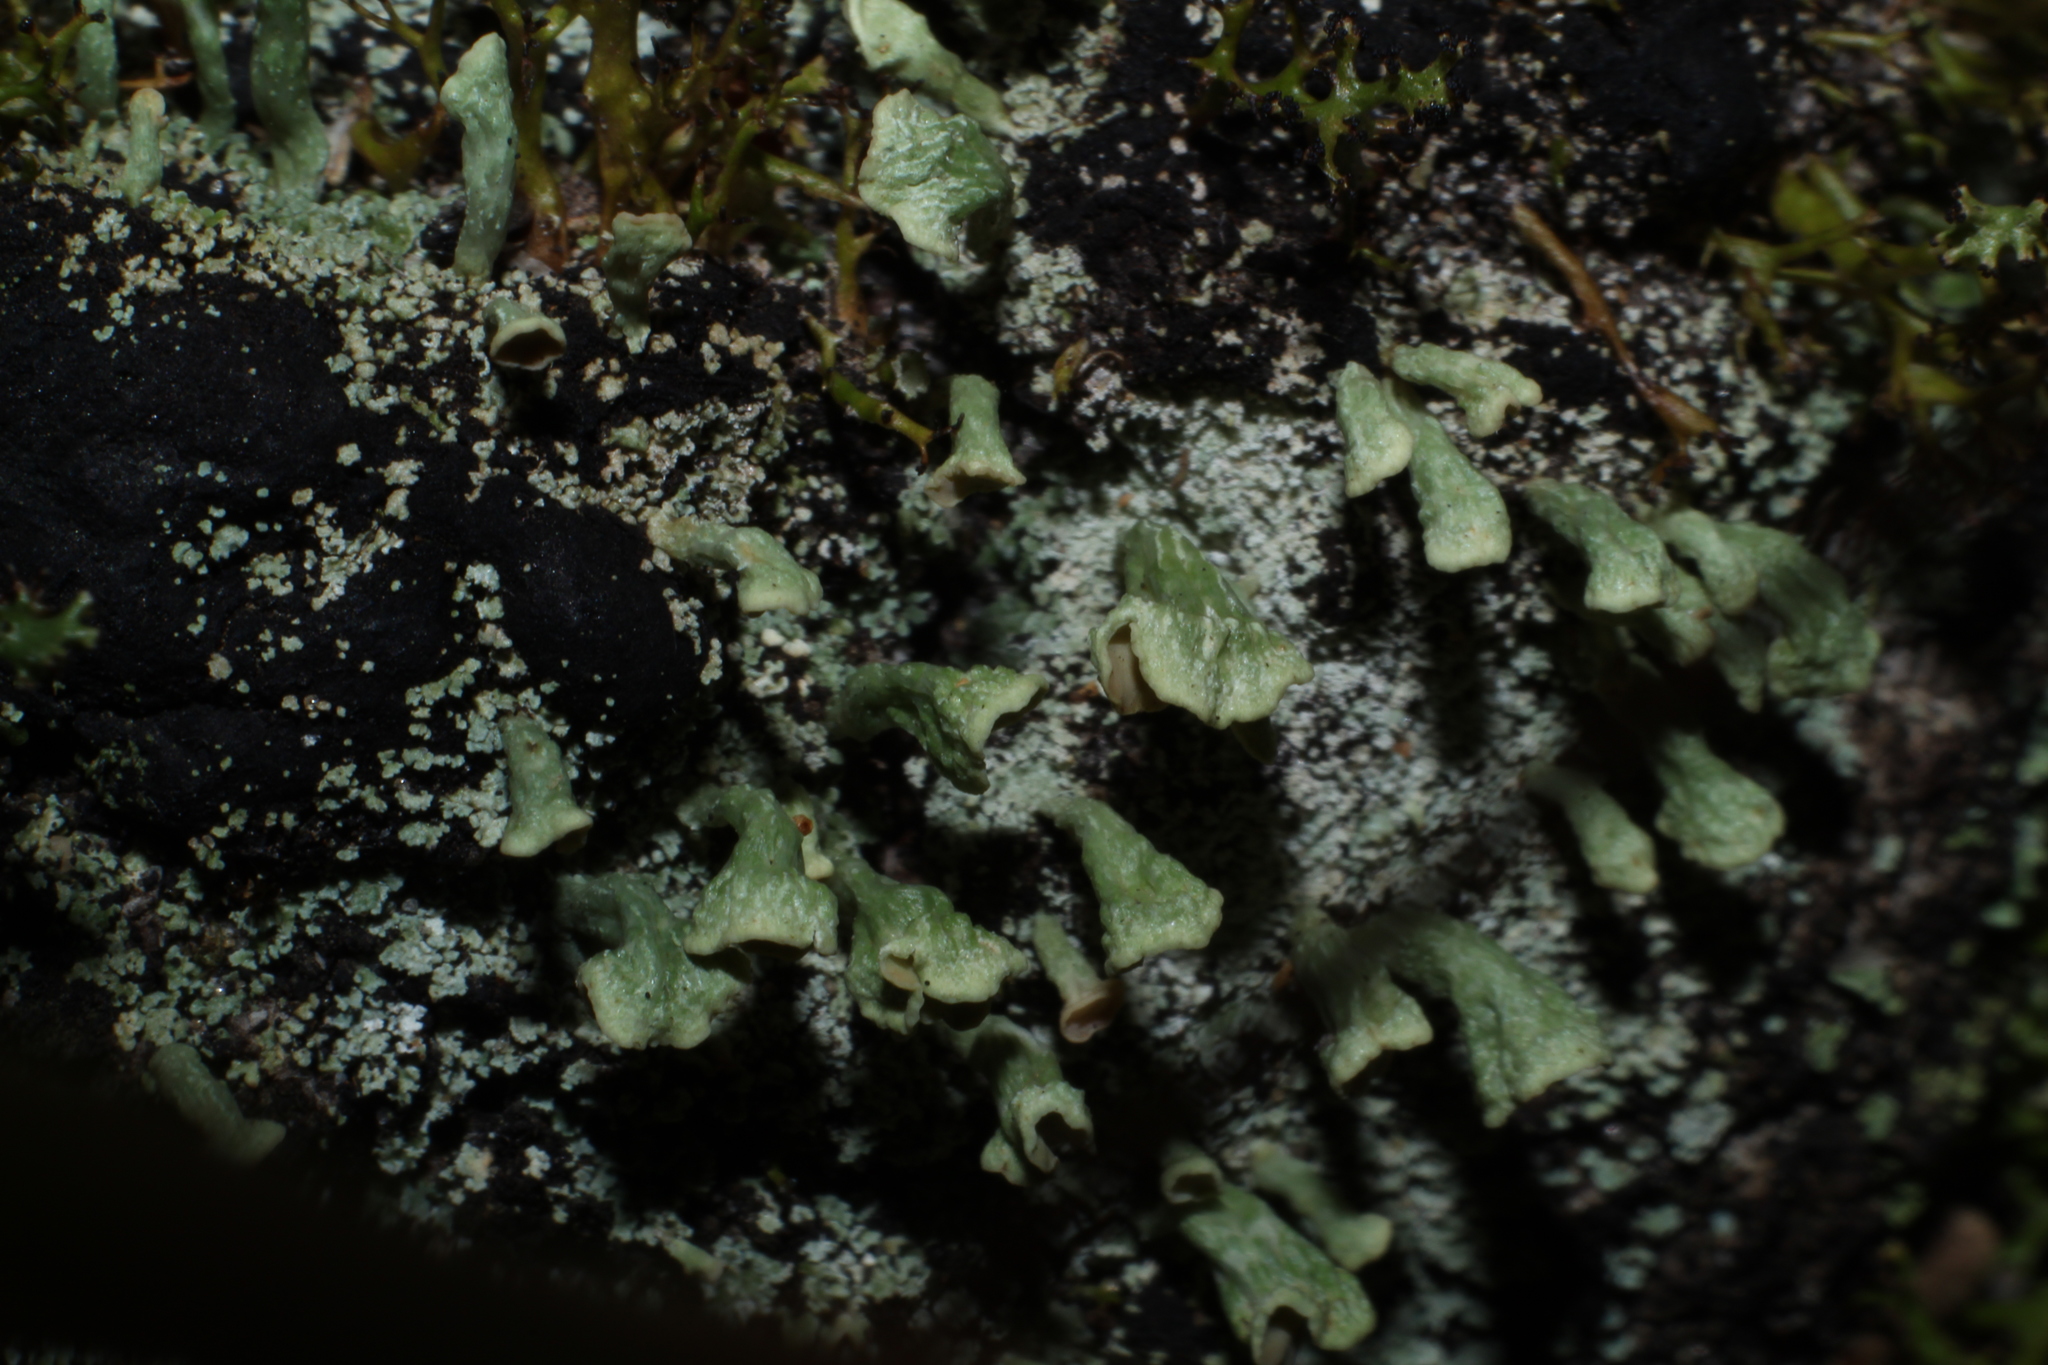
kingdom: Fungi
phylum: Ascomycota
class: Lecanoromycetes
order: Lecanorales
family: Cladoniaceae
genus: Thysanothecium
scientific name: Thysanothecium scutellatum
